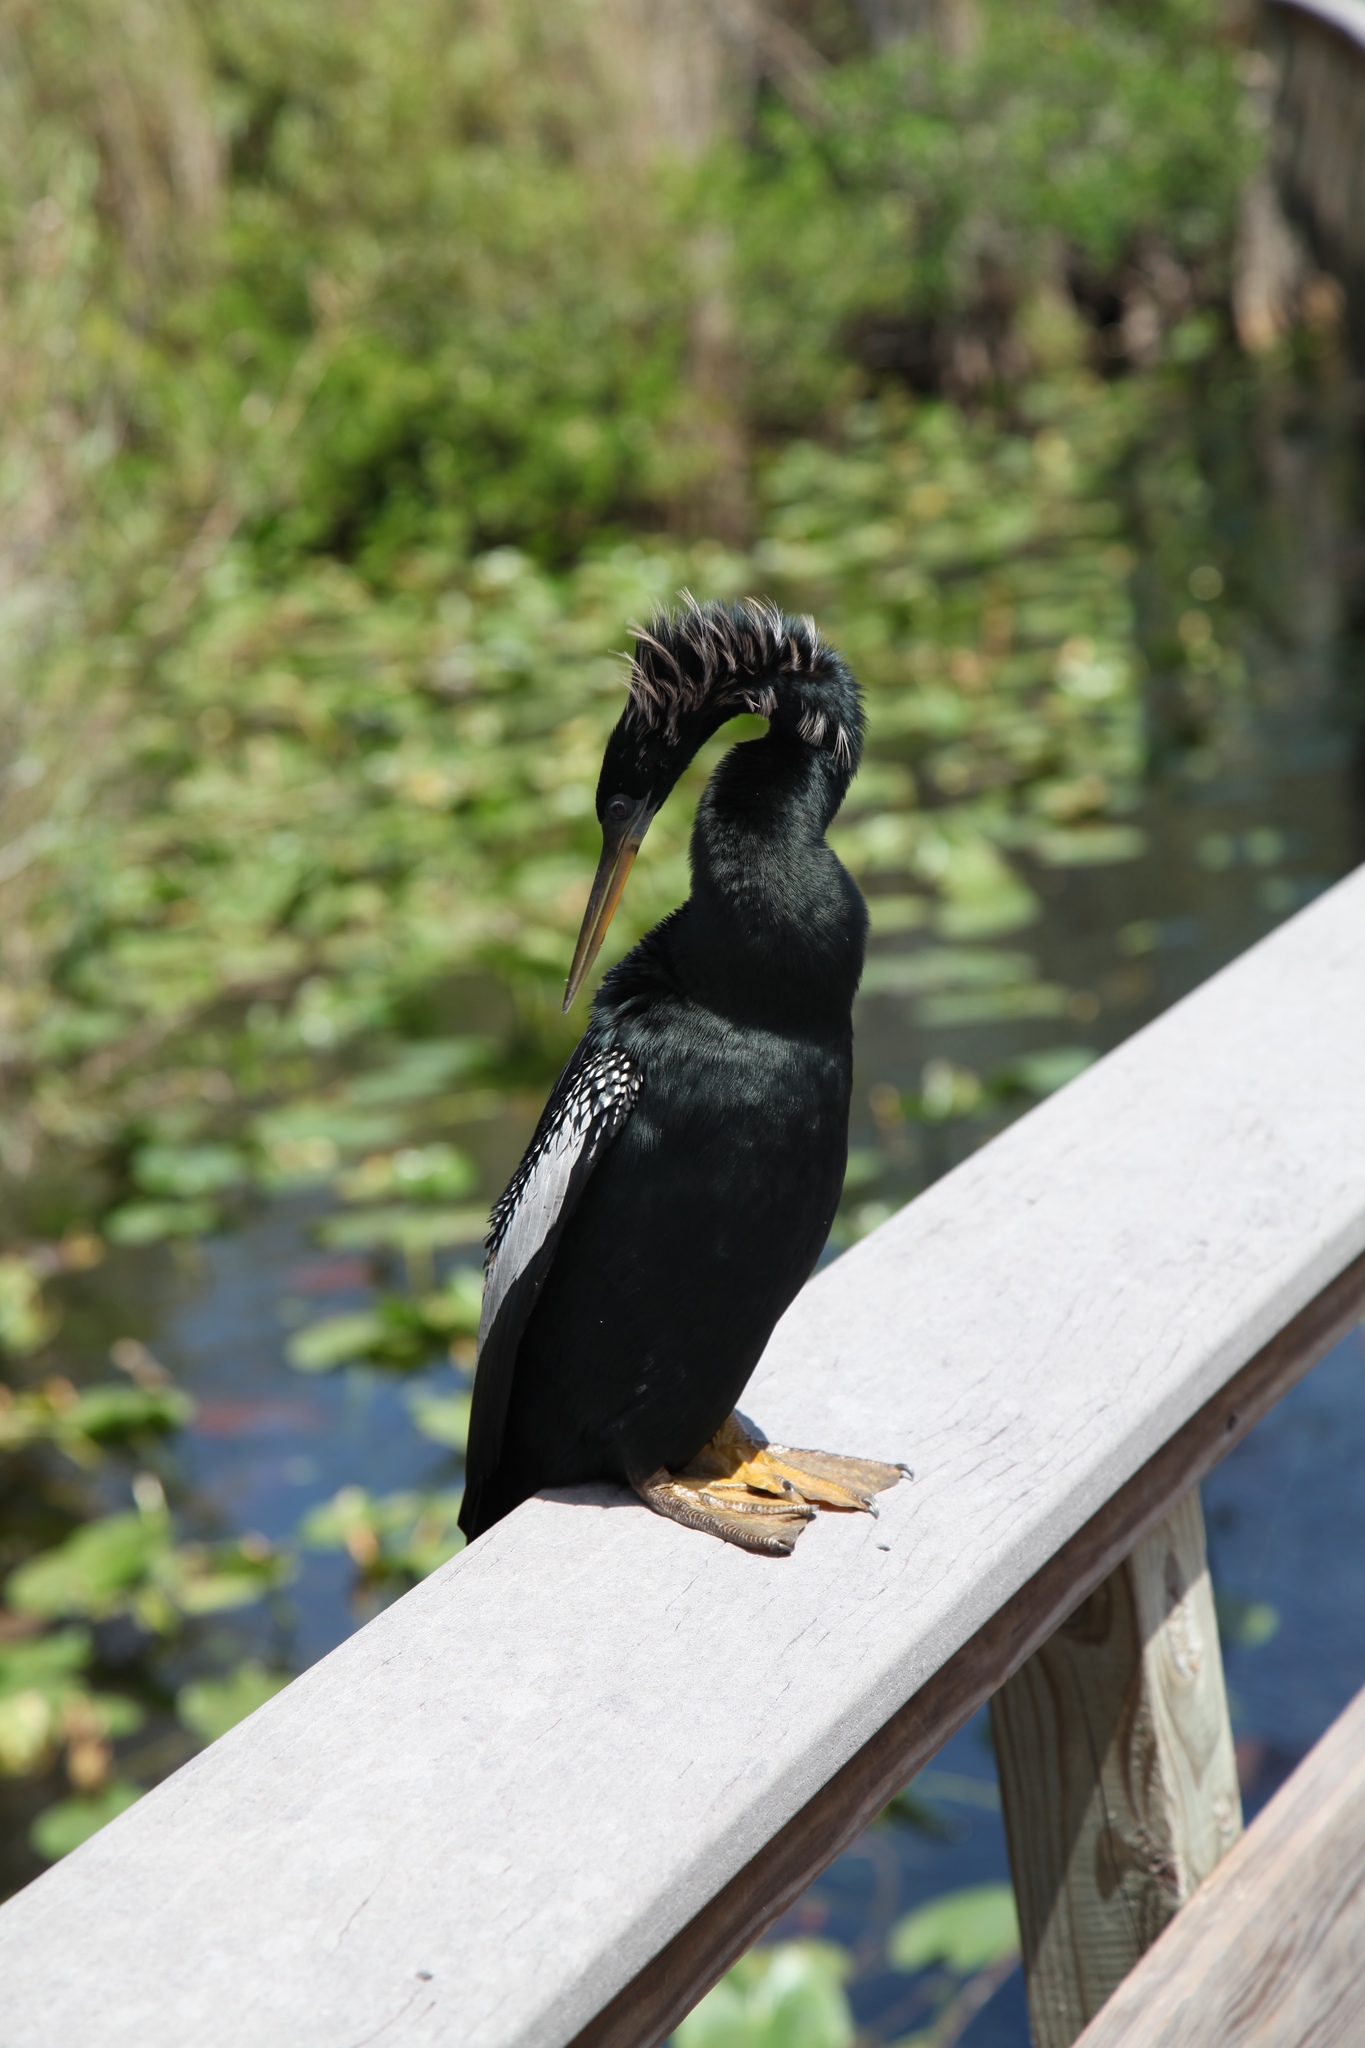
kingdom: Animalia
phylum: Chordata
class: Aves
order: Suliformes
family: Anhingidae
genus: Anhinga
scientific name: Anhinga anhinga
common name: Anhinga
